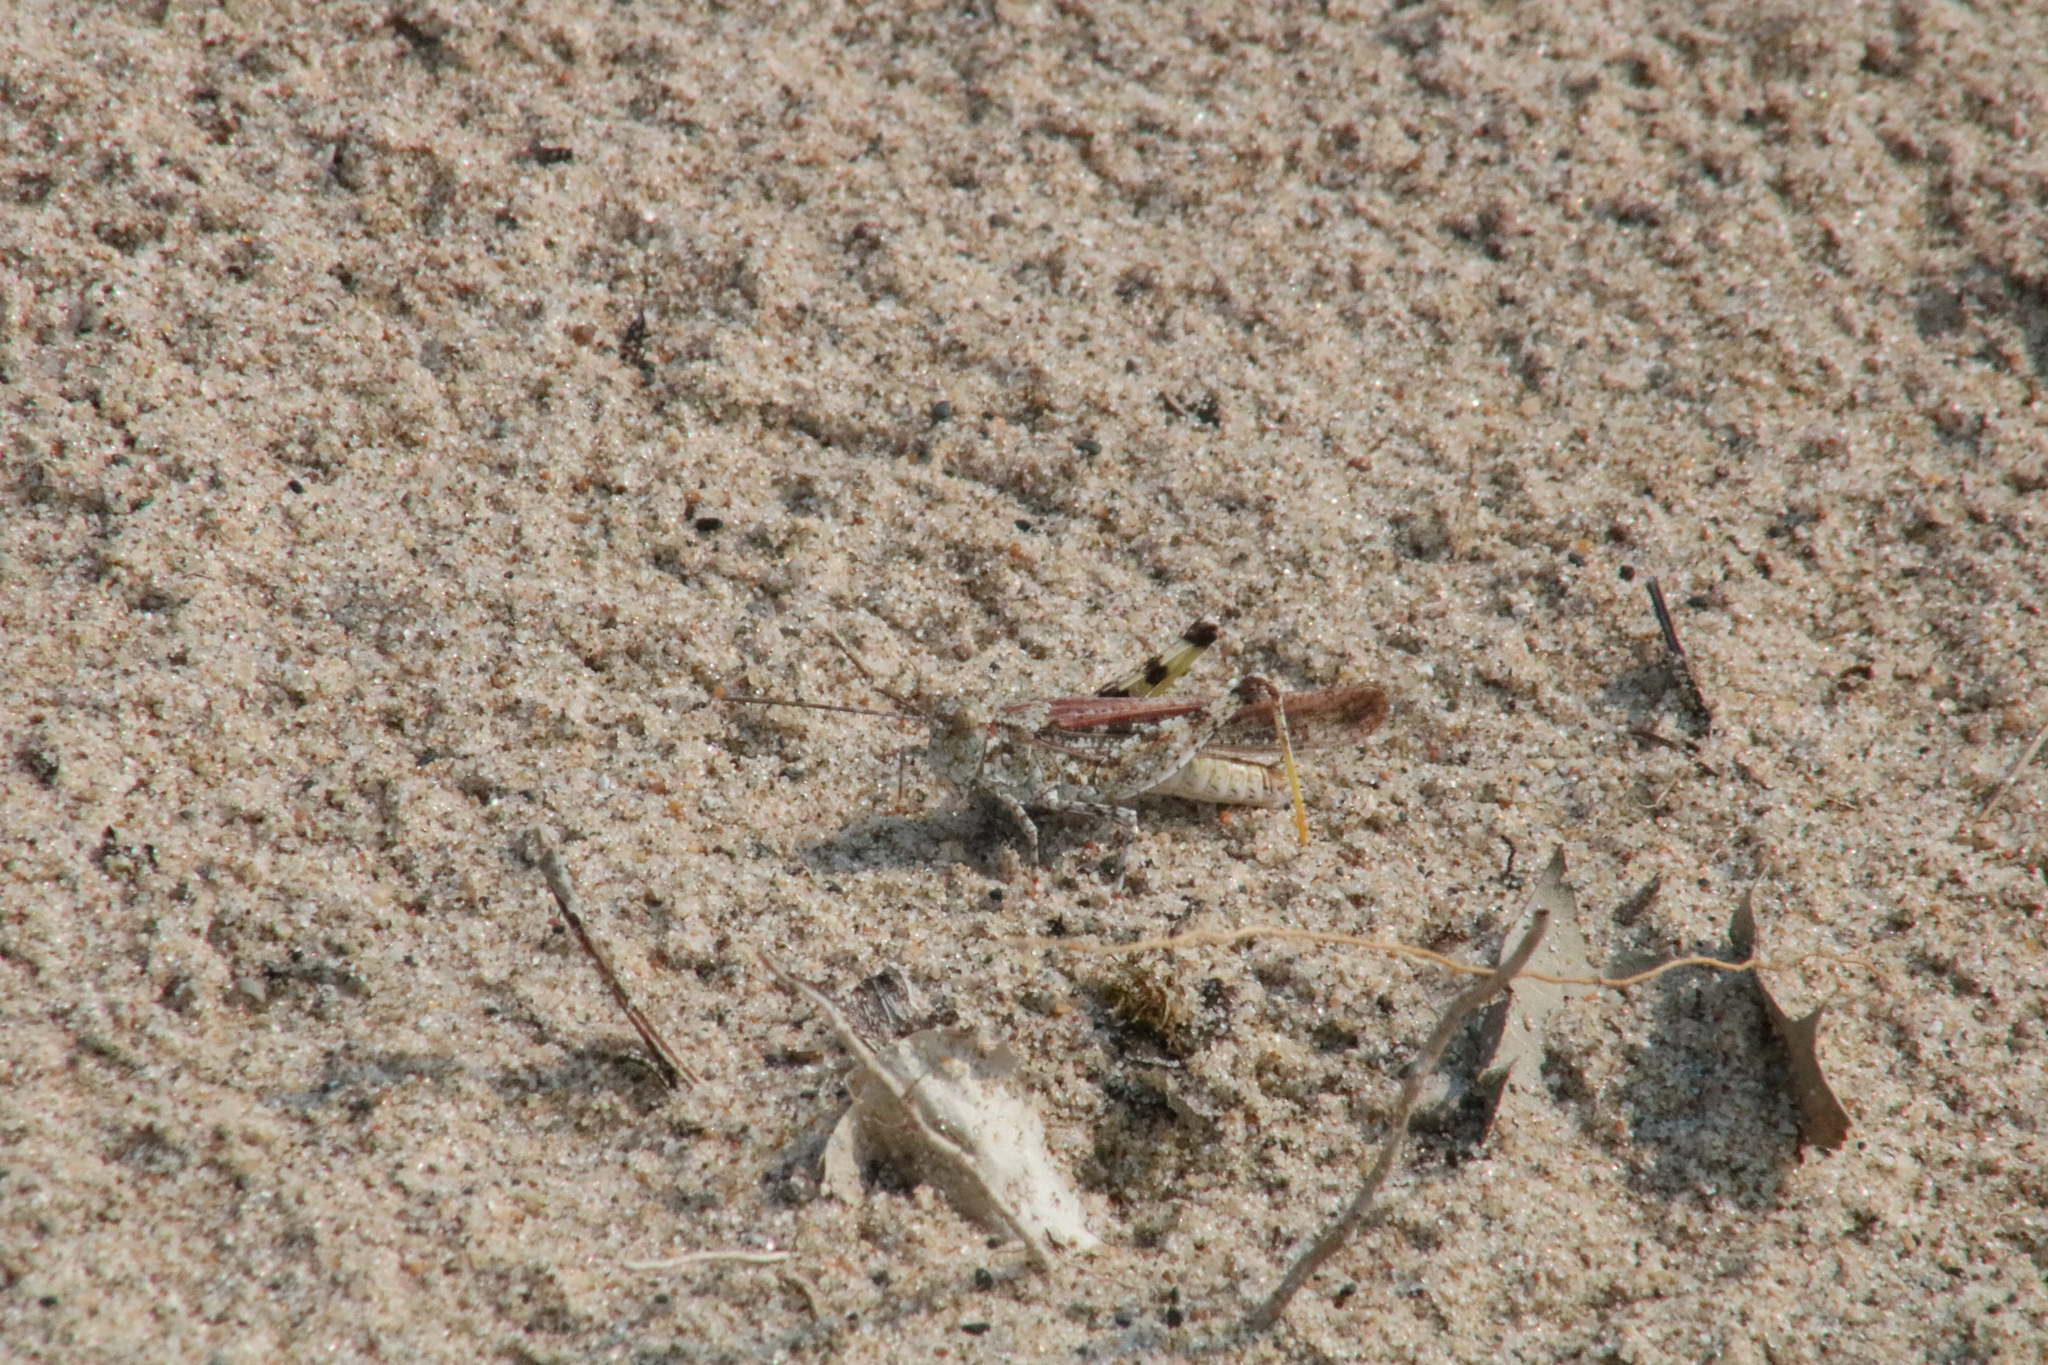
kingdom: Animalia
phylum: Arthropoda
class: Insecta
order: Orthoptera
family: Acrididae
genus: Trimerotropis
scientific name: Trimerotropis maritima
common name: Seaside locust
